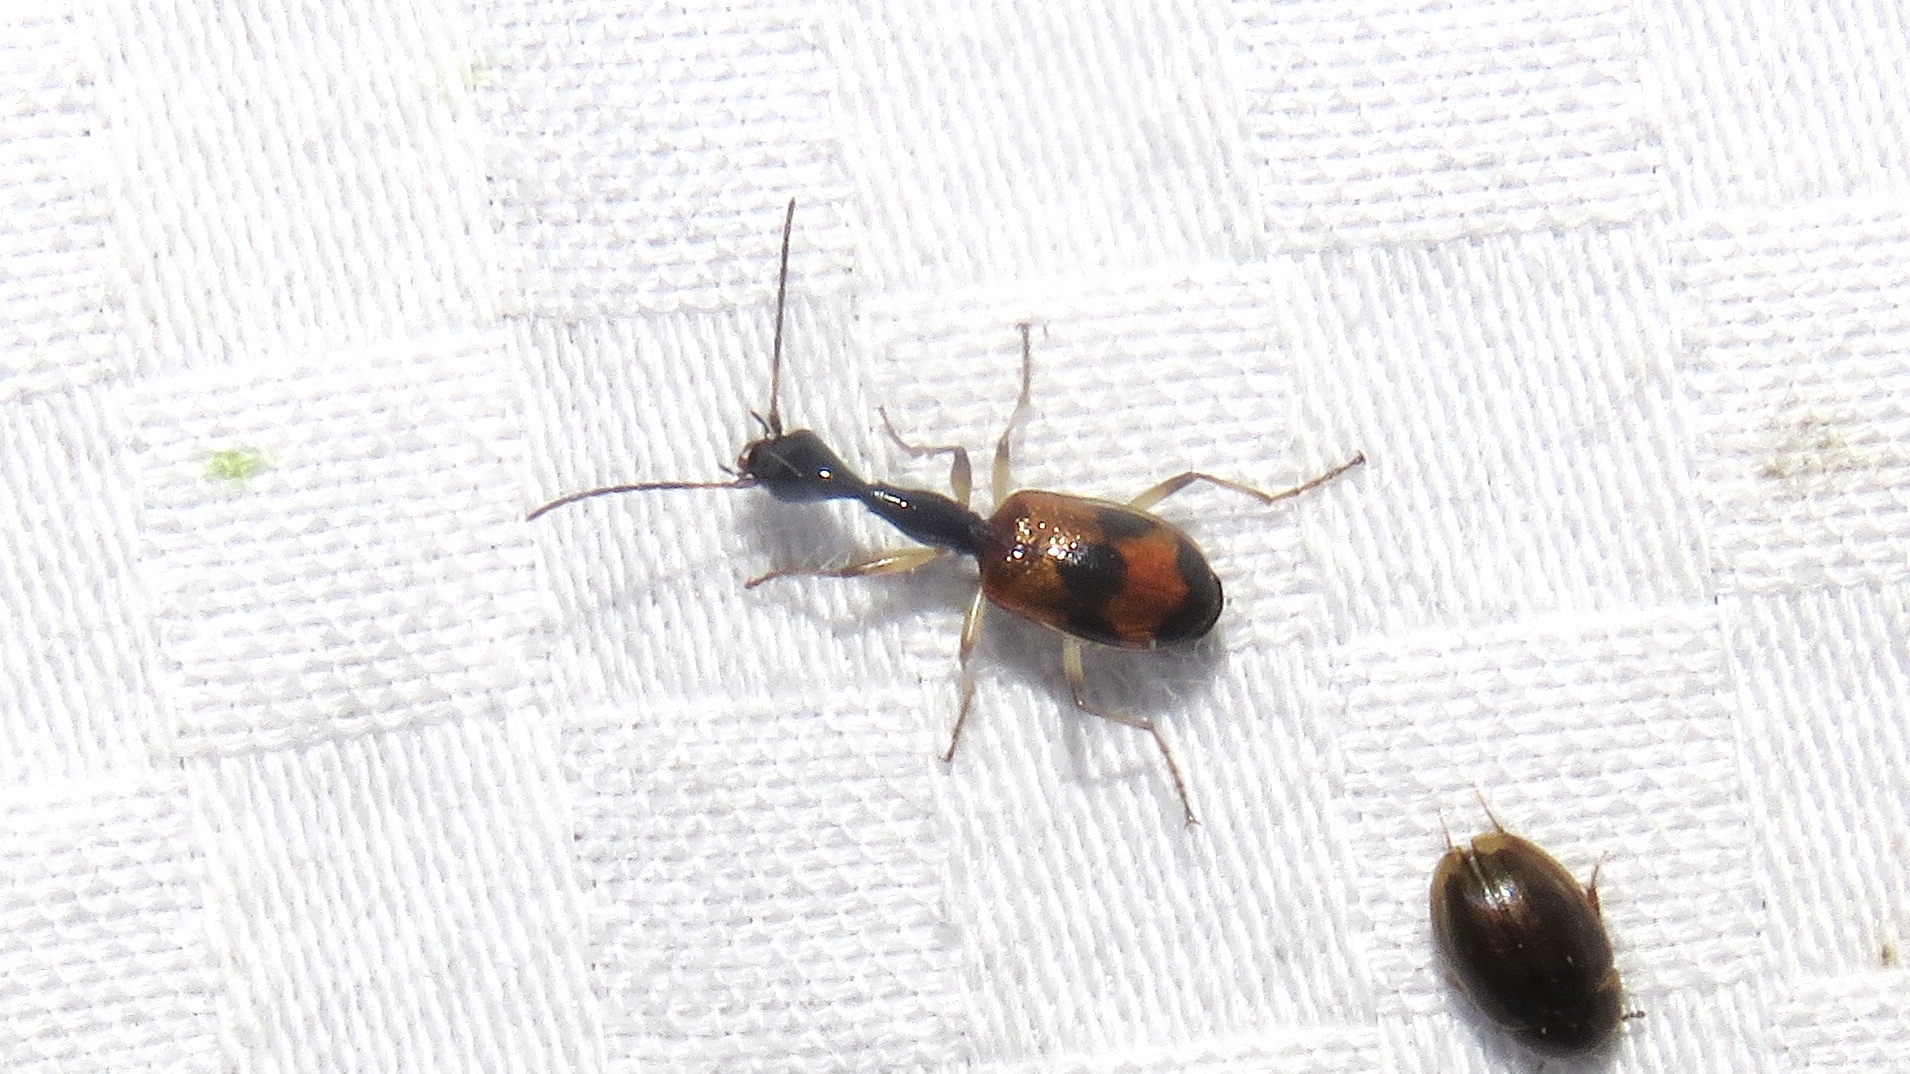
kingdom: Animalia
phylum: Arthropoda
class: Insecta
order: Coleoptera
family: Carabidae
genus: Colliuris
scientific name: Colliuris pensylvanica
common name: Long-necked ground beetle
